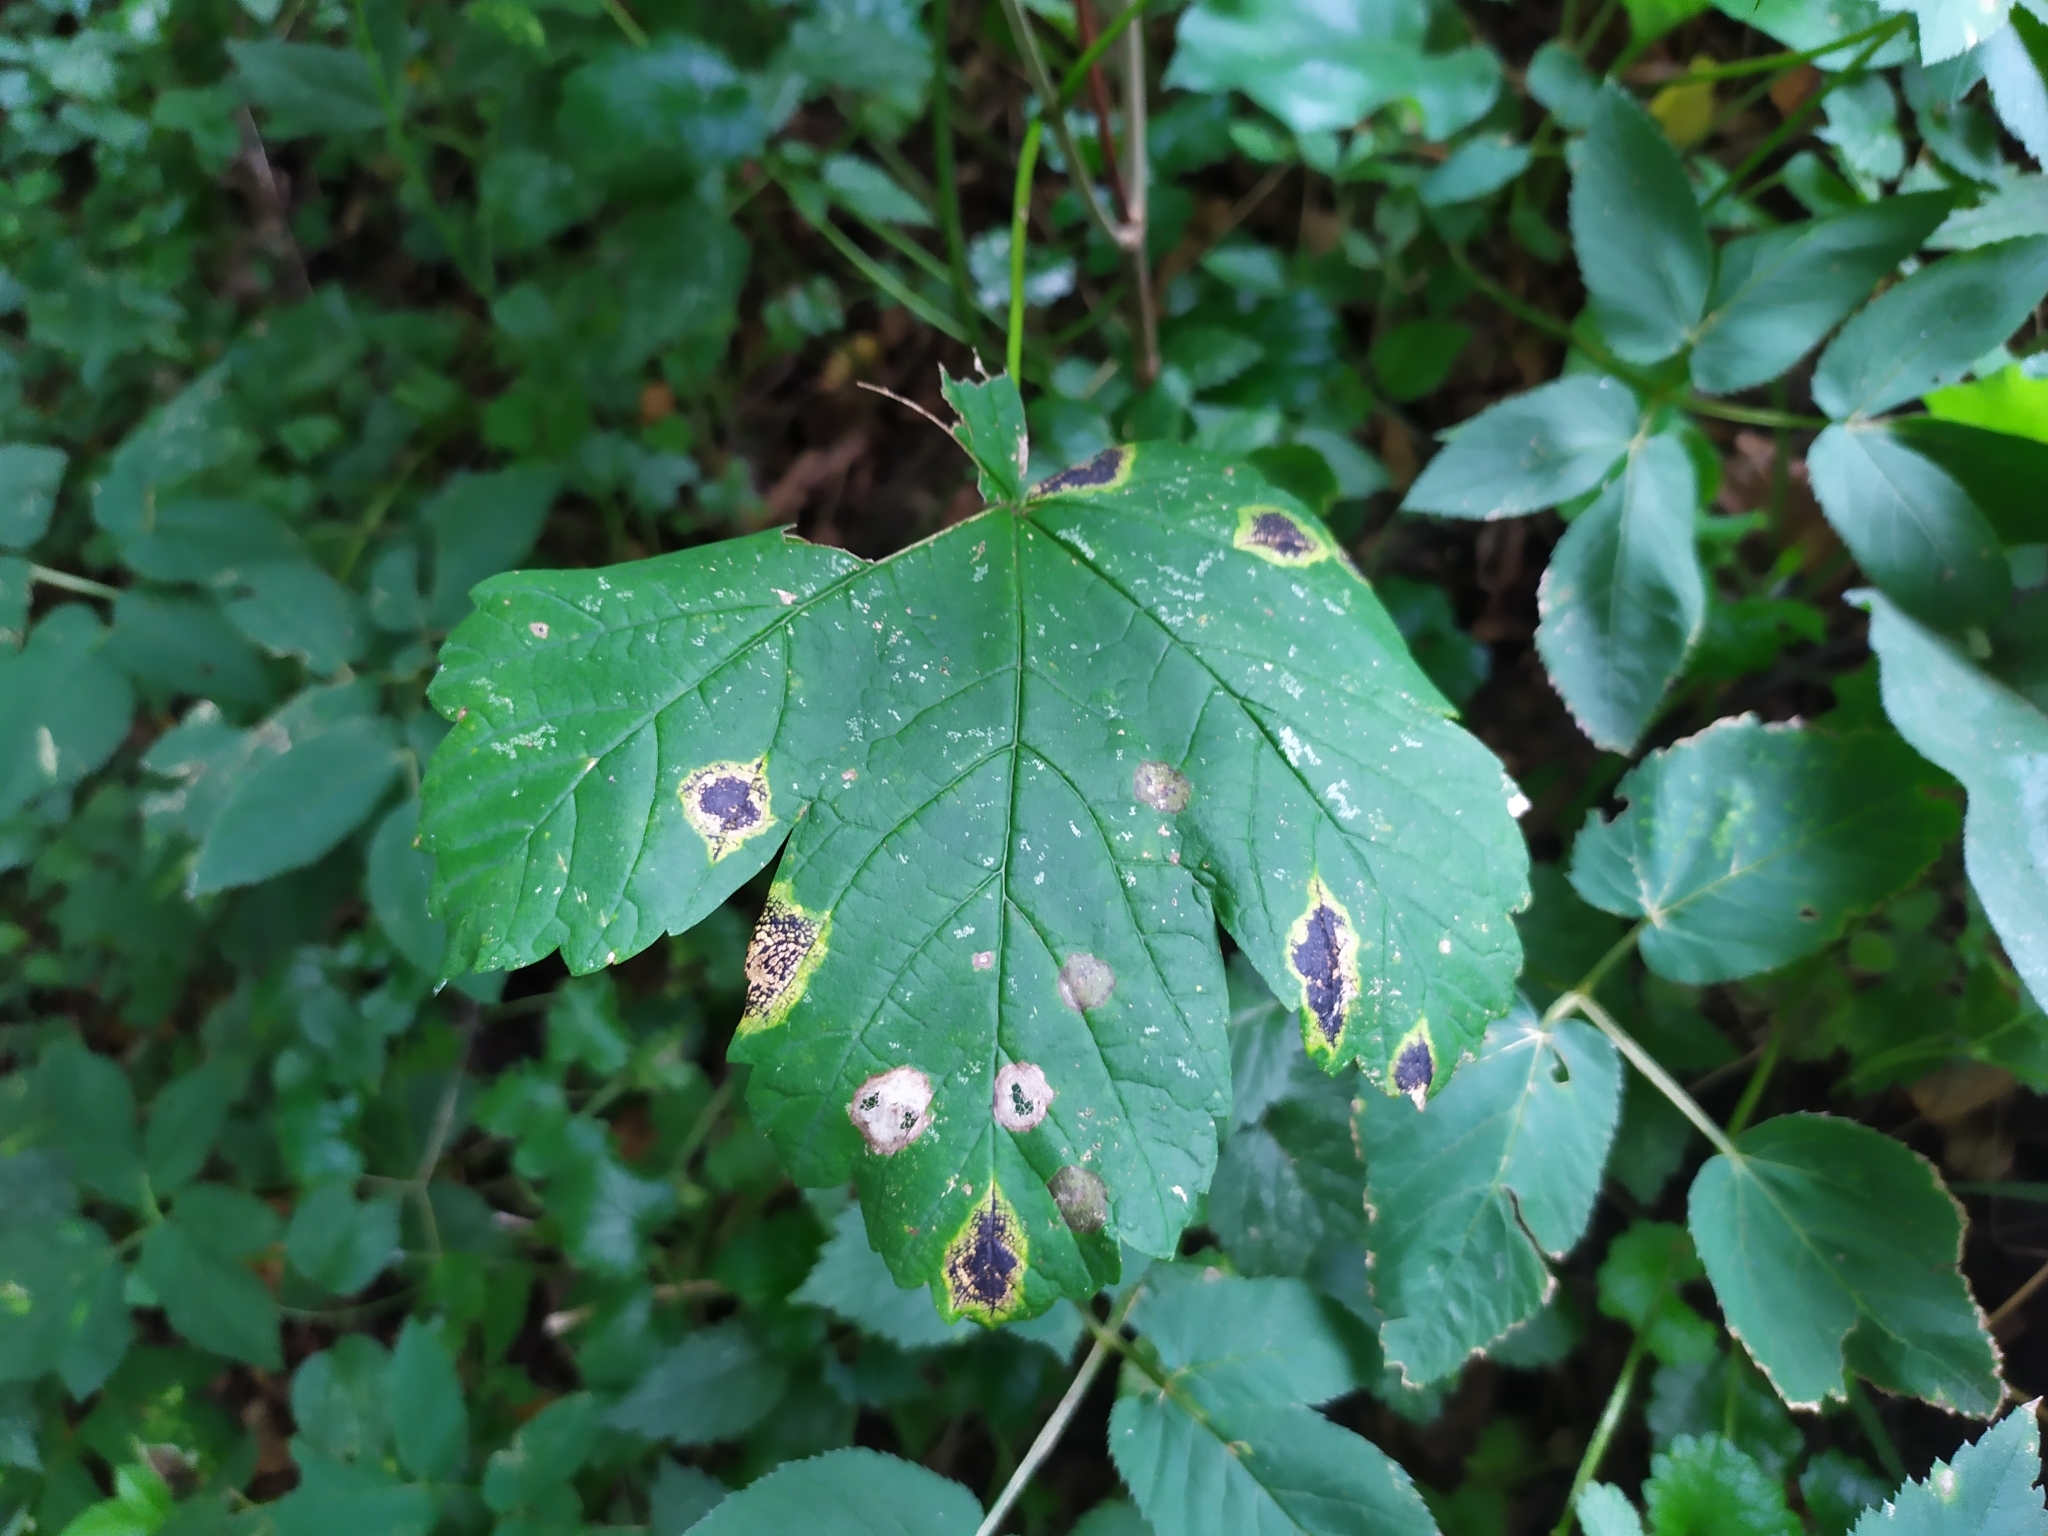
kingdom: Fungi
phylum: Ascomycota
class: Leotiomycetes
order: Rhytismatales
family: Rhytismataceae
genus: Rhytisma
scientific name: Rhytisma acerinum
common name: European tar spot
